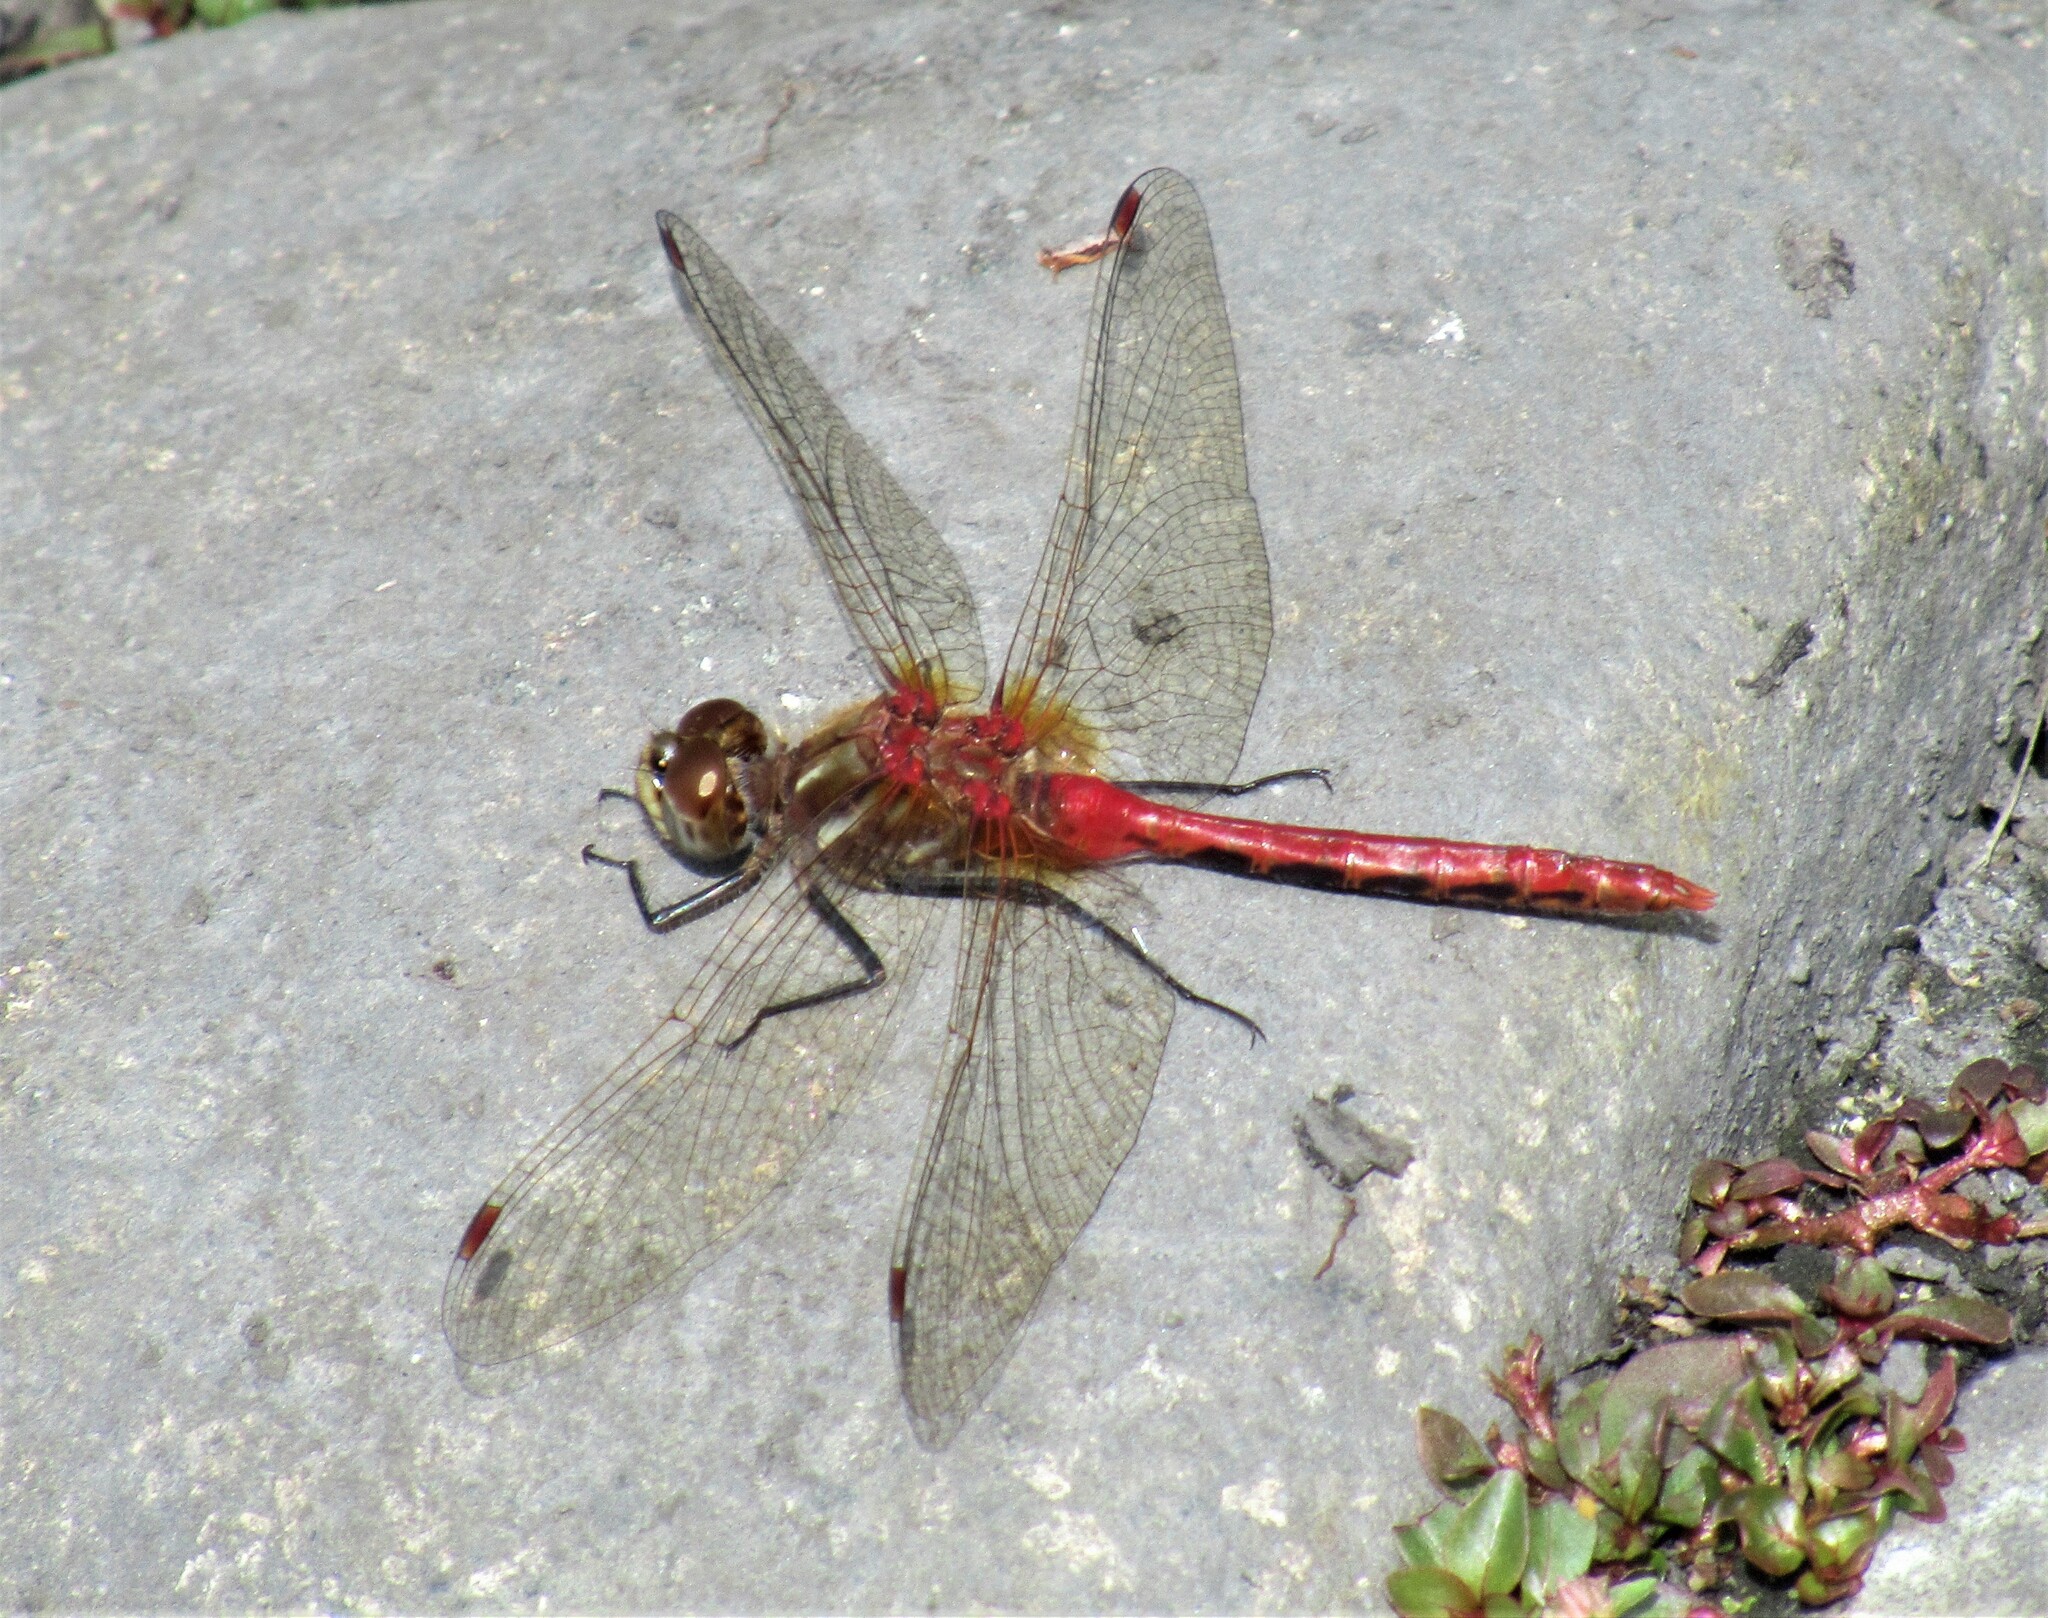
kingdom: Animalia
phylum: Arthropoda
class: Insecta
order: Odonata
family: Libellulidae
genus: Sympetrum
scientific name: Sympetrum pallipes
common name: Striped meadowhawk
